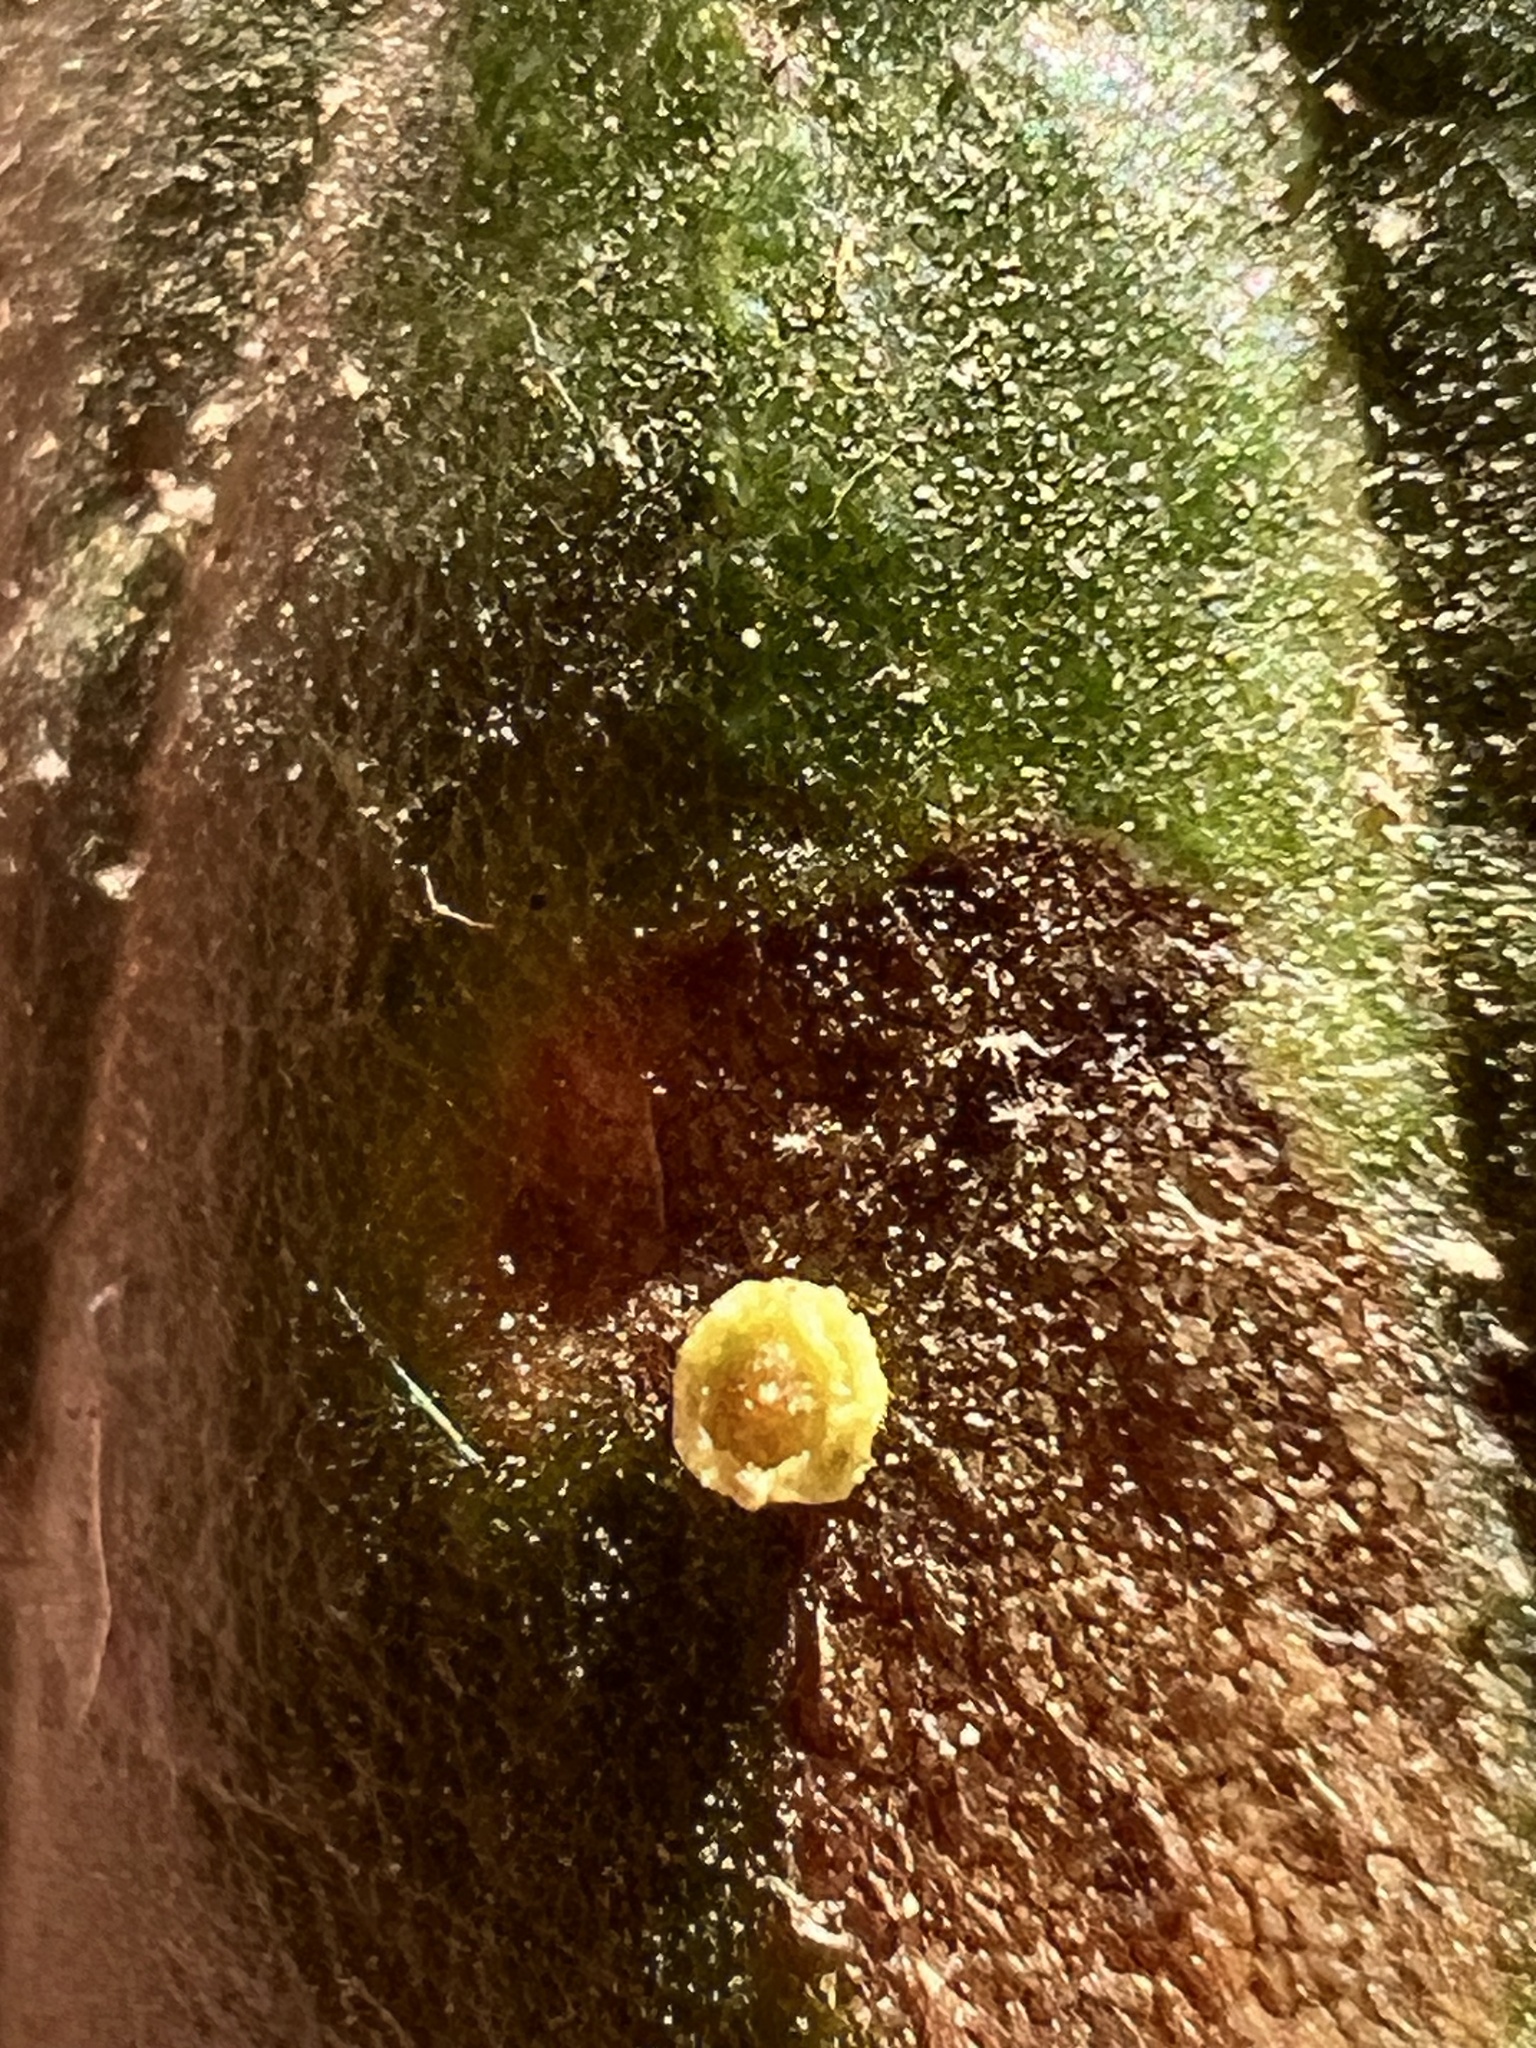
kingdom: Animalia
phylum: Arthropoda
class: Insecta
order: Hymenoptera
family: Cynipidae
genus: Dryocosmus
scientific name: Dryocosmus
